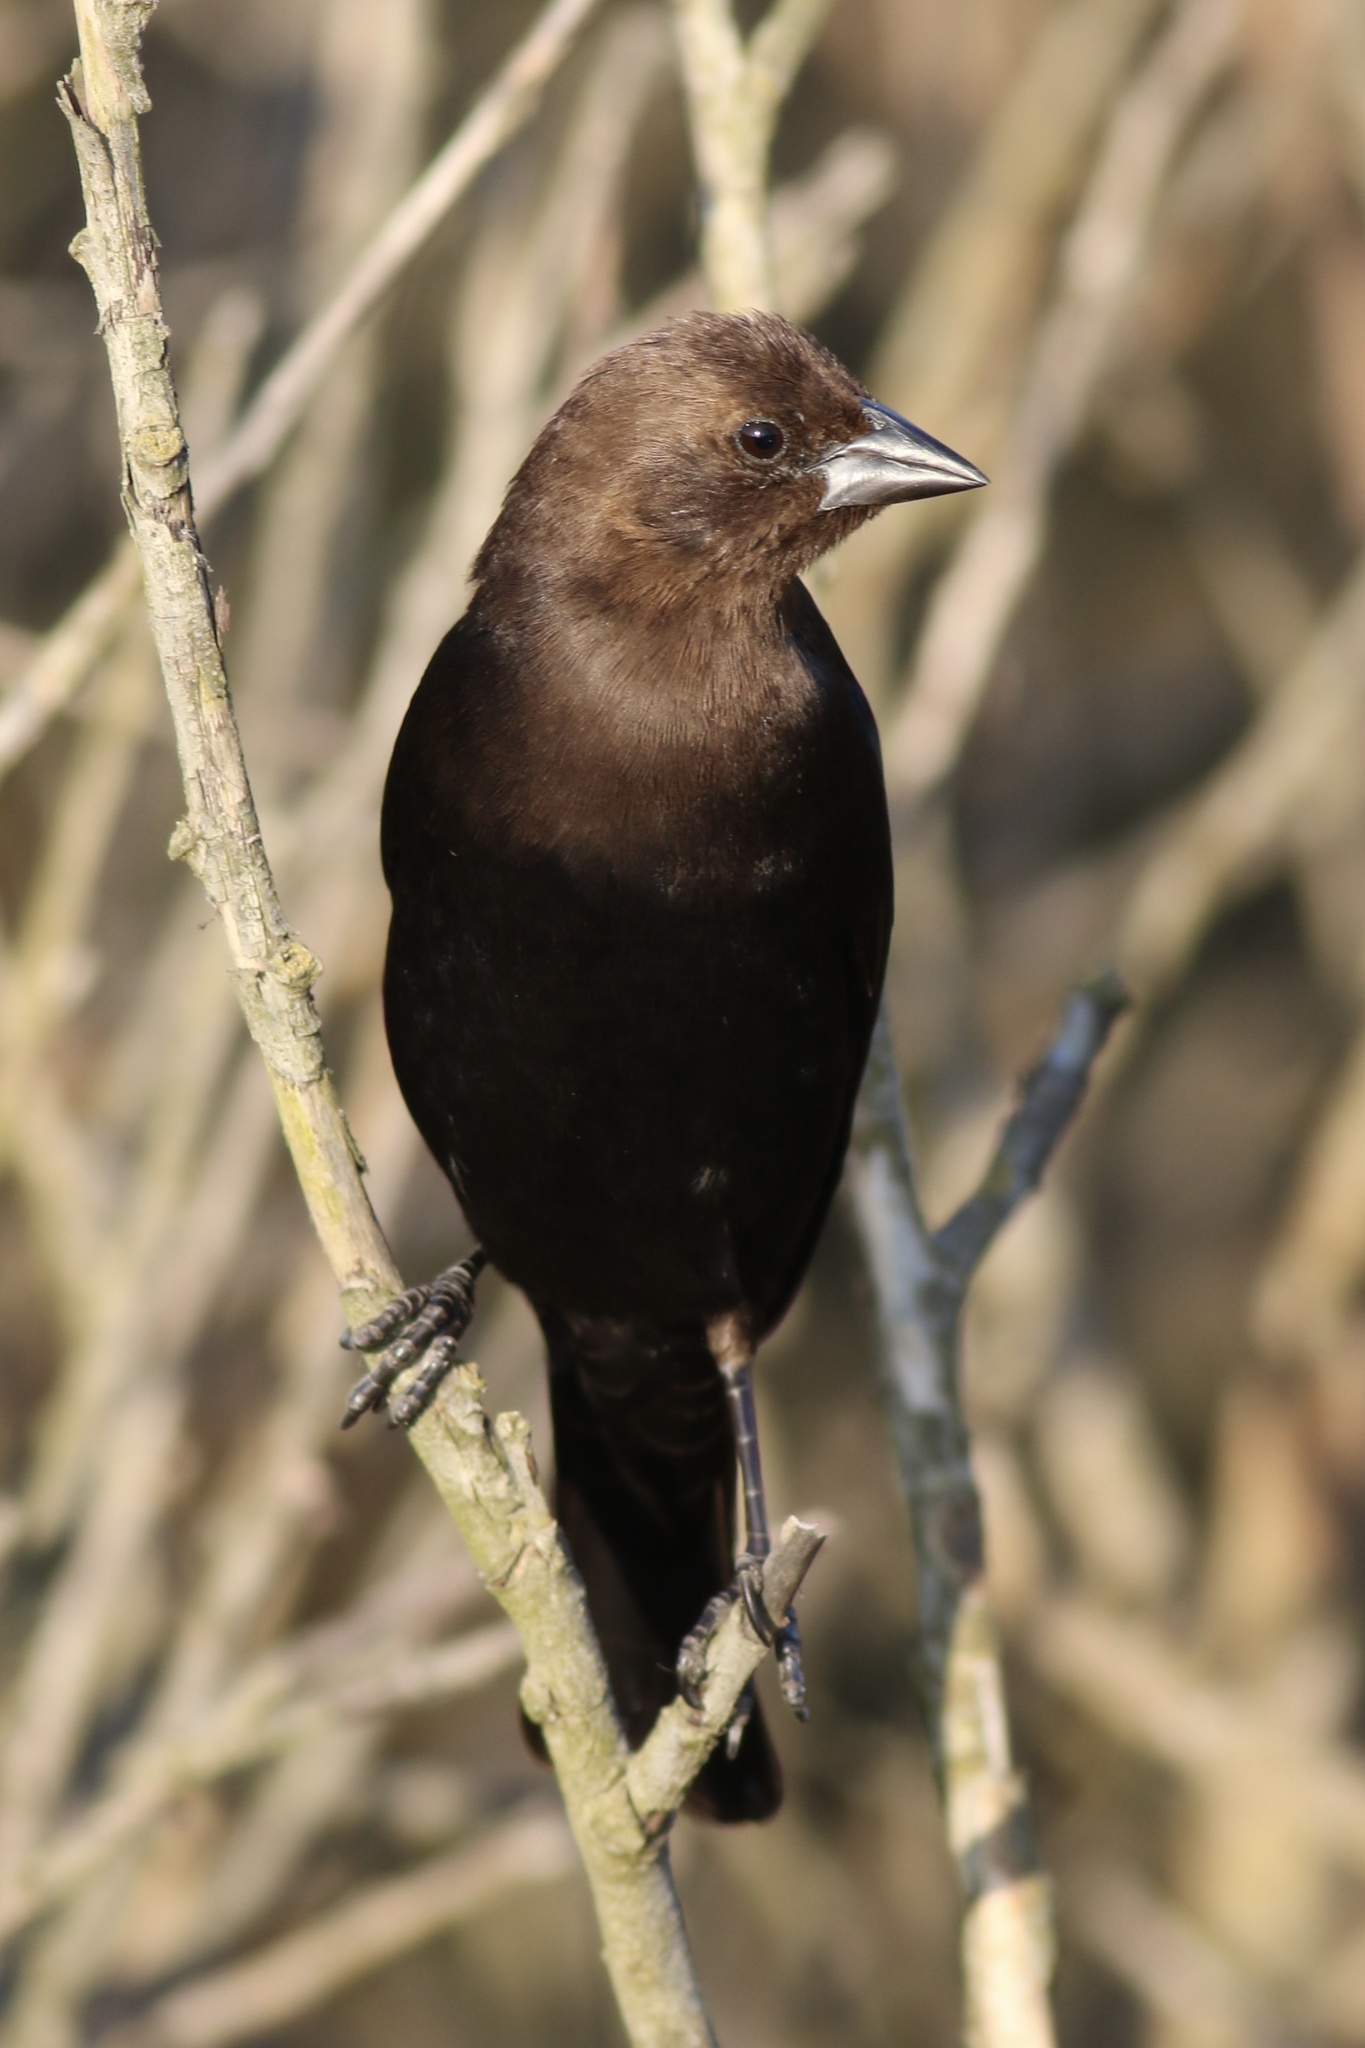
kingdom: Animalia
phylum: Chordata
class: Aves
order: Passeriformes
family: Icteridae
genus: Molothrus
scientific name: Molothrus ater
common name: Brown-headed cowbird
